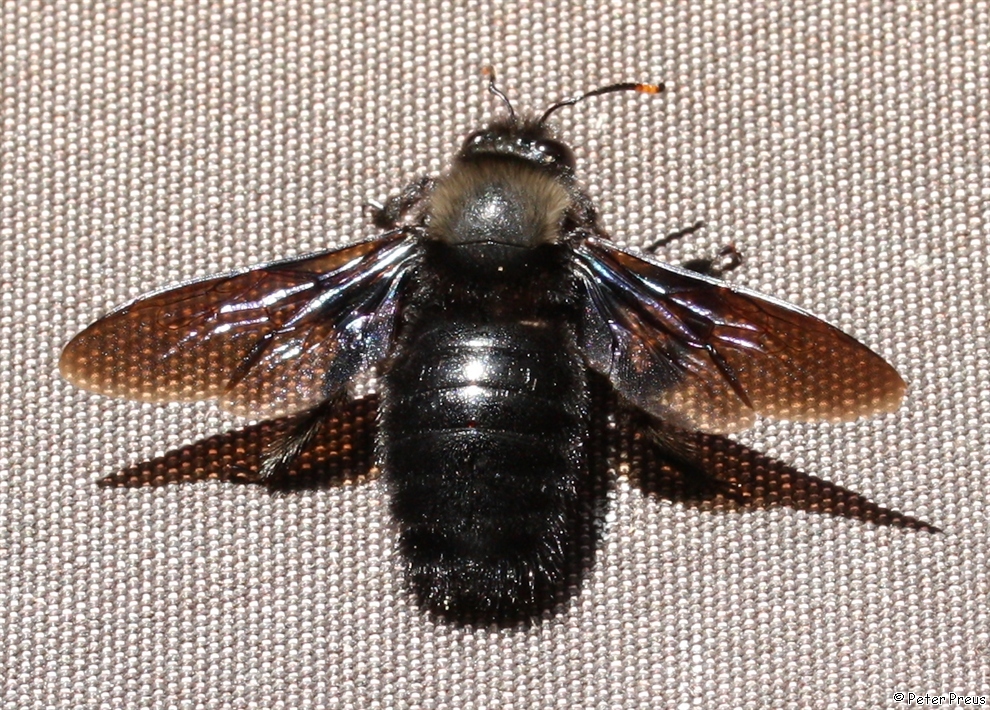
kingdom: Animalia
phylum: Arthropoda
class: Insecta
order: Hymenoptera
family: Apidae
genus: Xylocopa
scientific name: Xylocopa violacea
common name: Violet carpenter bee
